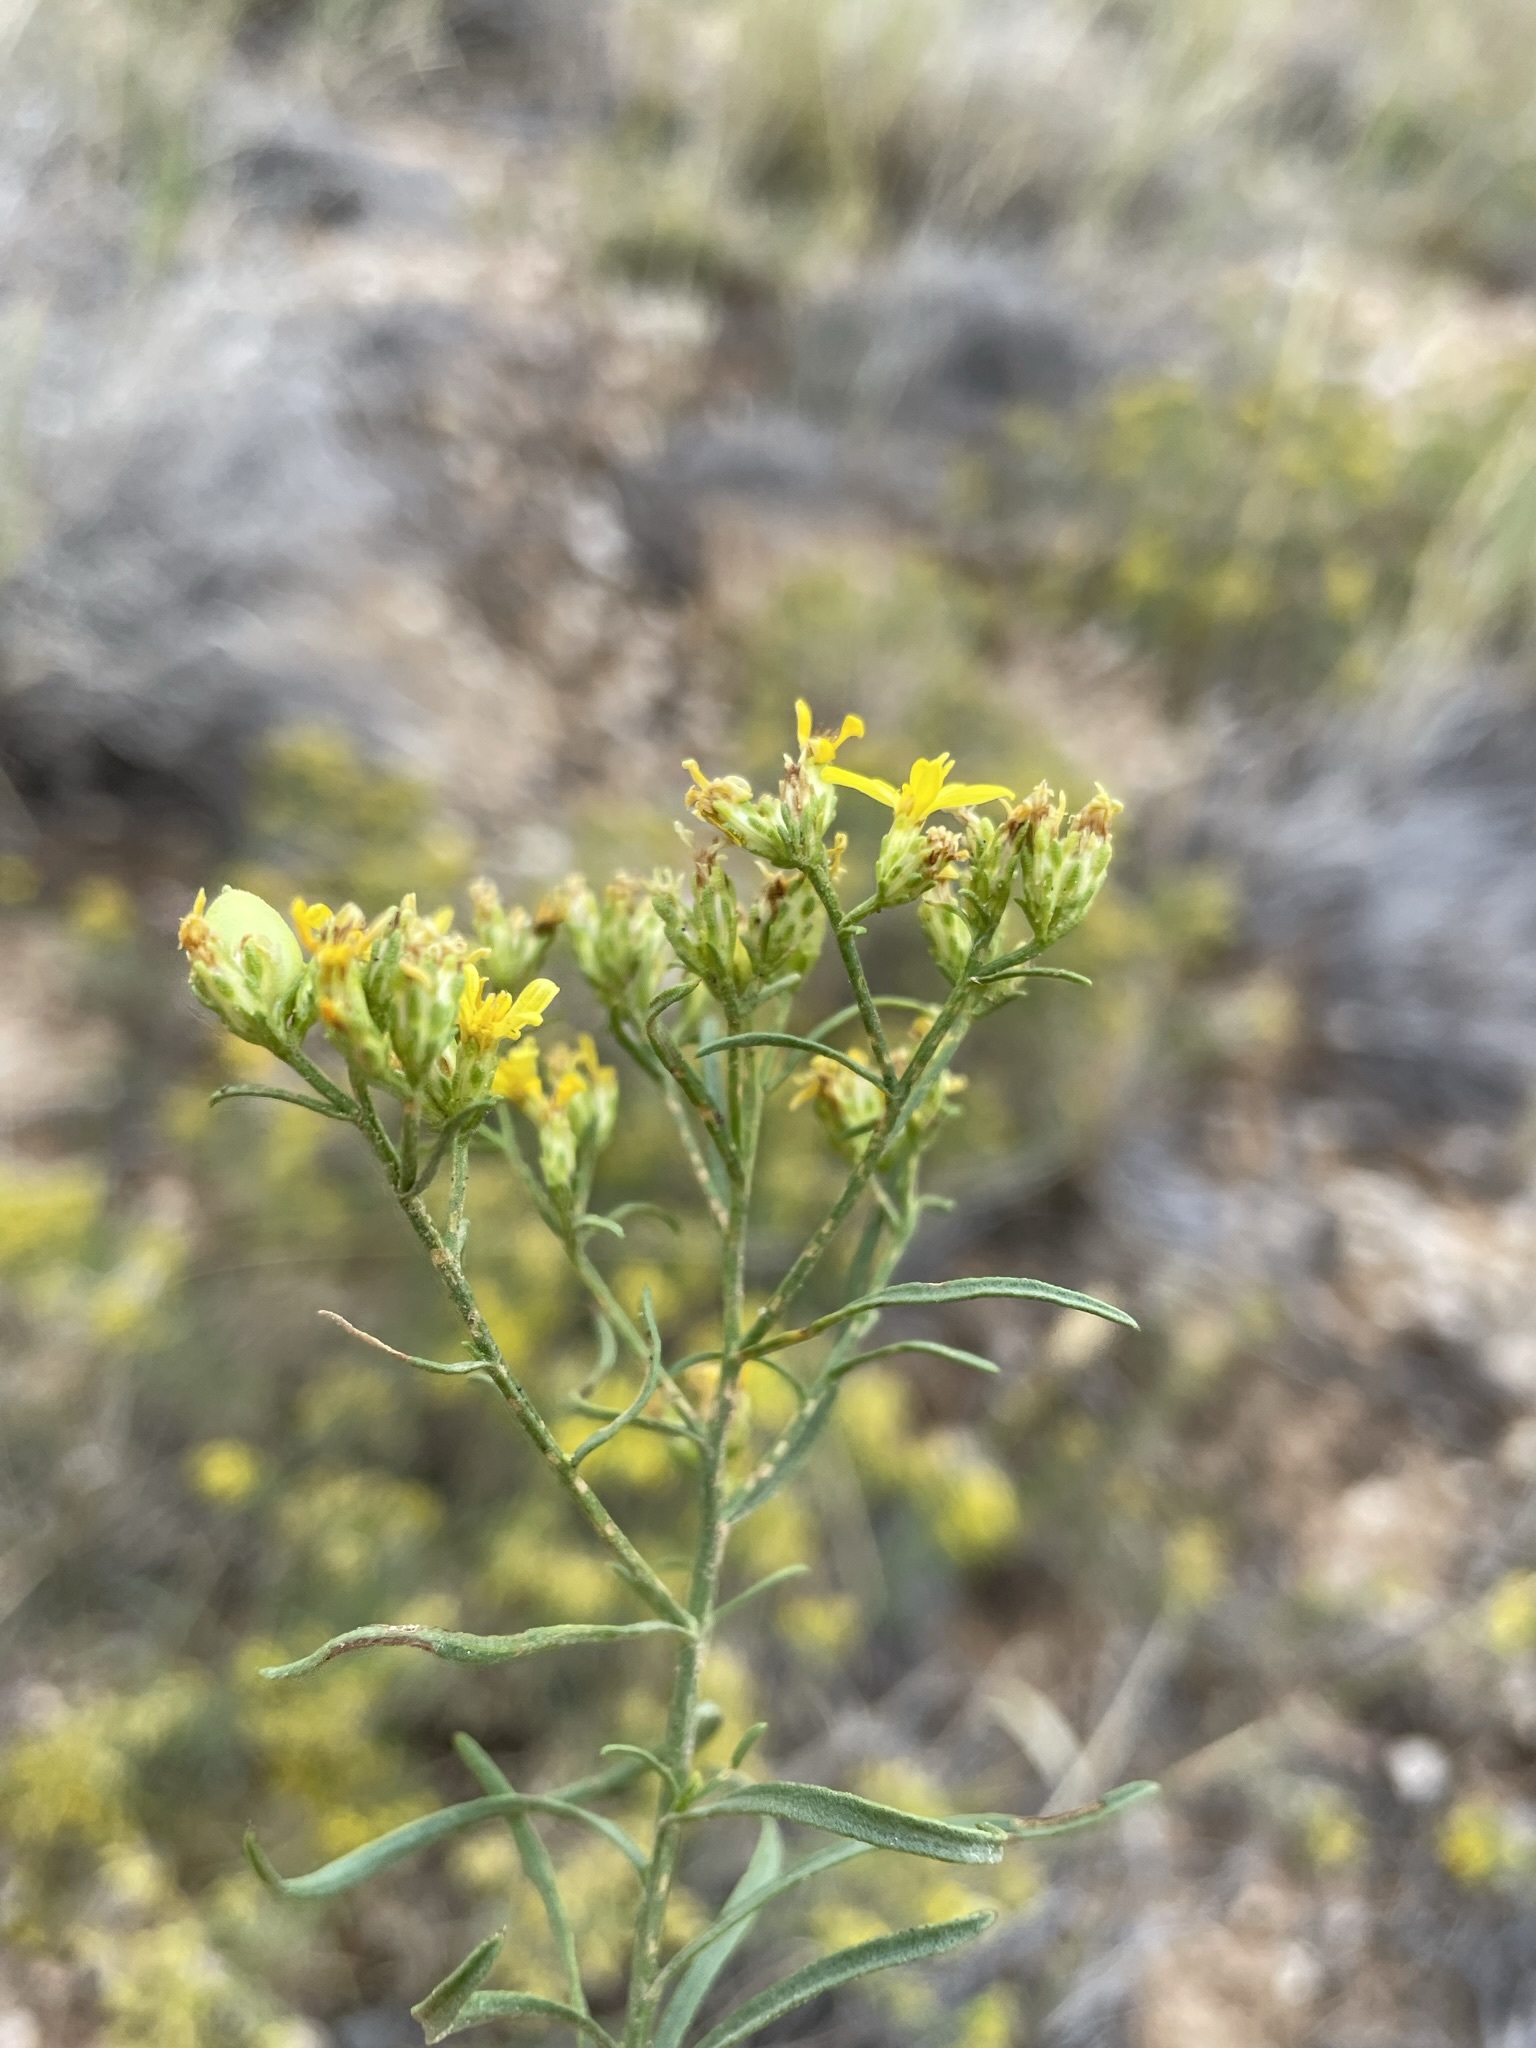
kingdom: Plantae
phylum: Tracheophyta
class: Magnoliopsida
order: Asterales
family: Asteraceae
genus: Gutierrezia
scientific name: Gutierrezia sarothrae
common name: Broom snakeweed
